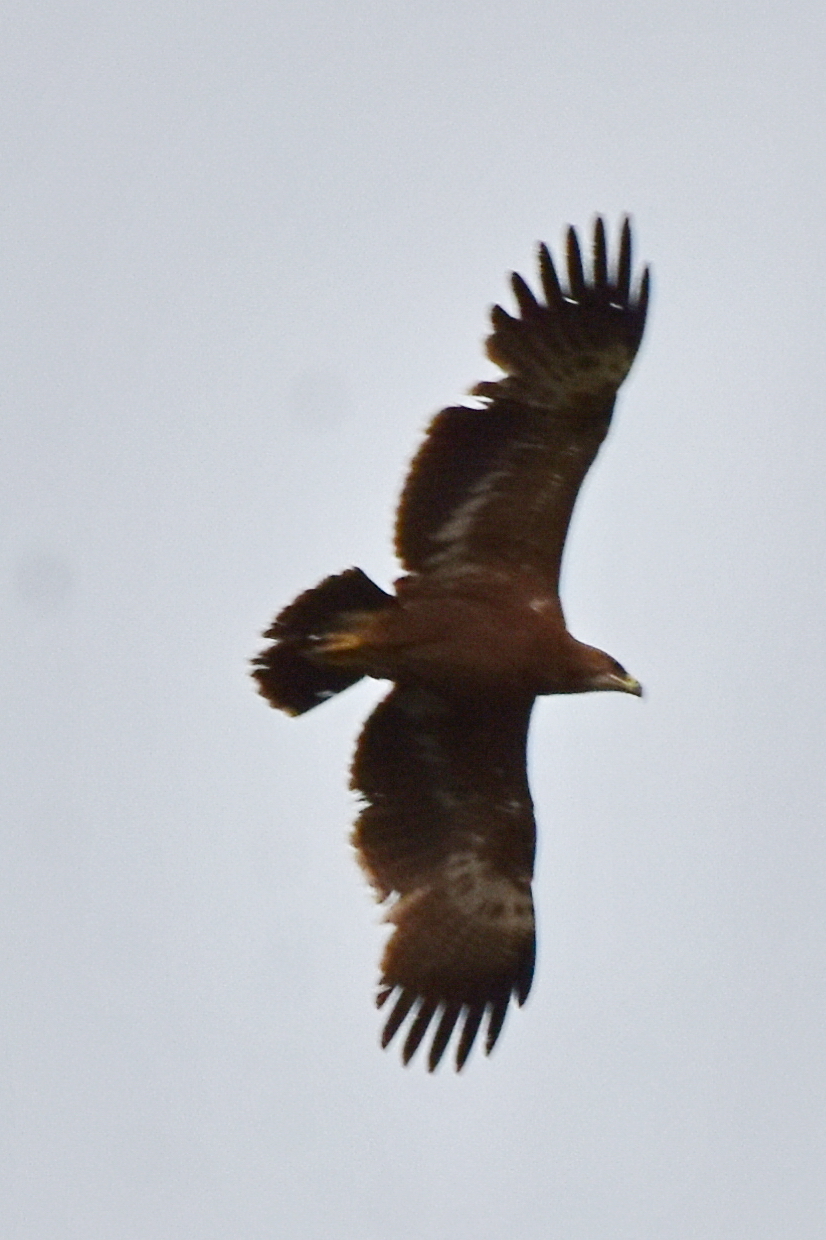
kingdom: Animalia
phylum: Chordata
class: Aves
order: Accipitriformes
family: Accipitridae
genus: Aquila
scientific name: Aquila nipalensis
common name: Steppe eagle
